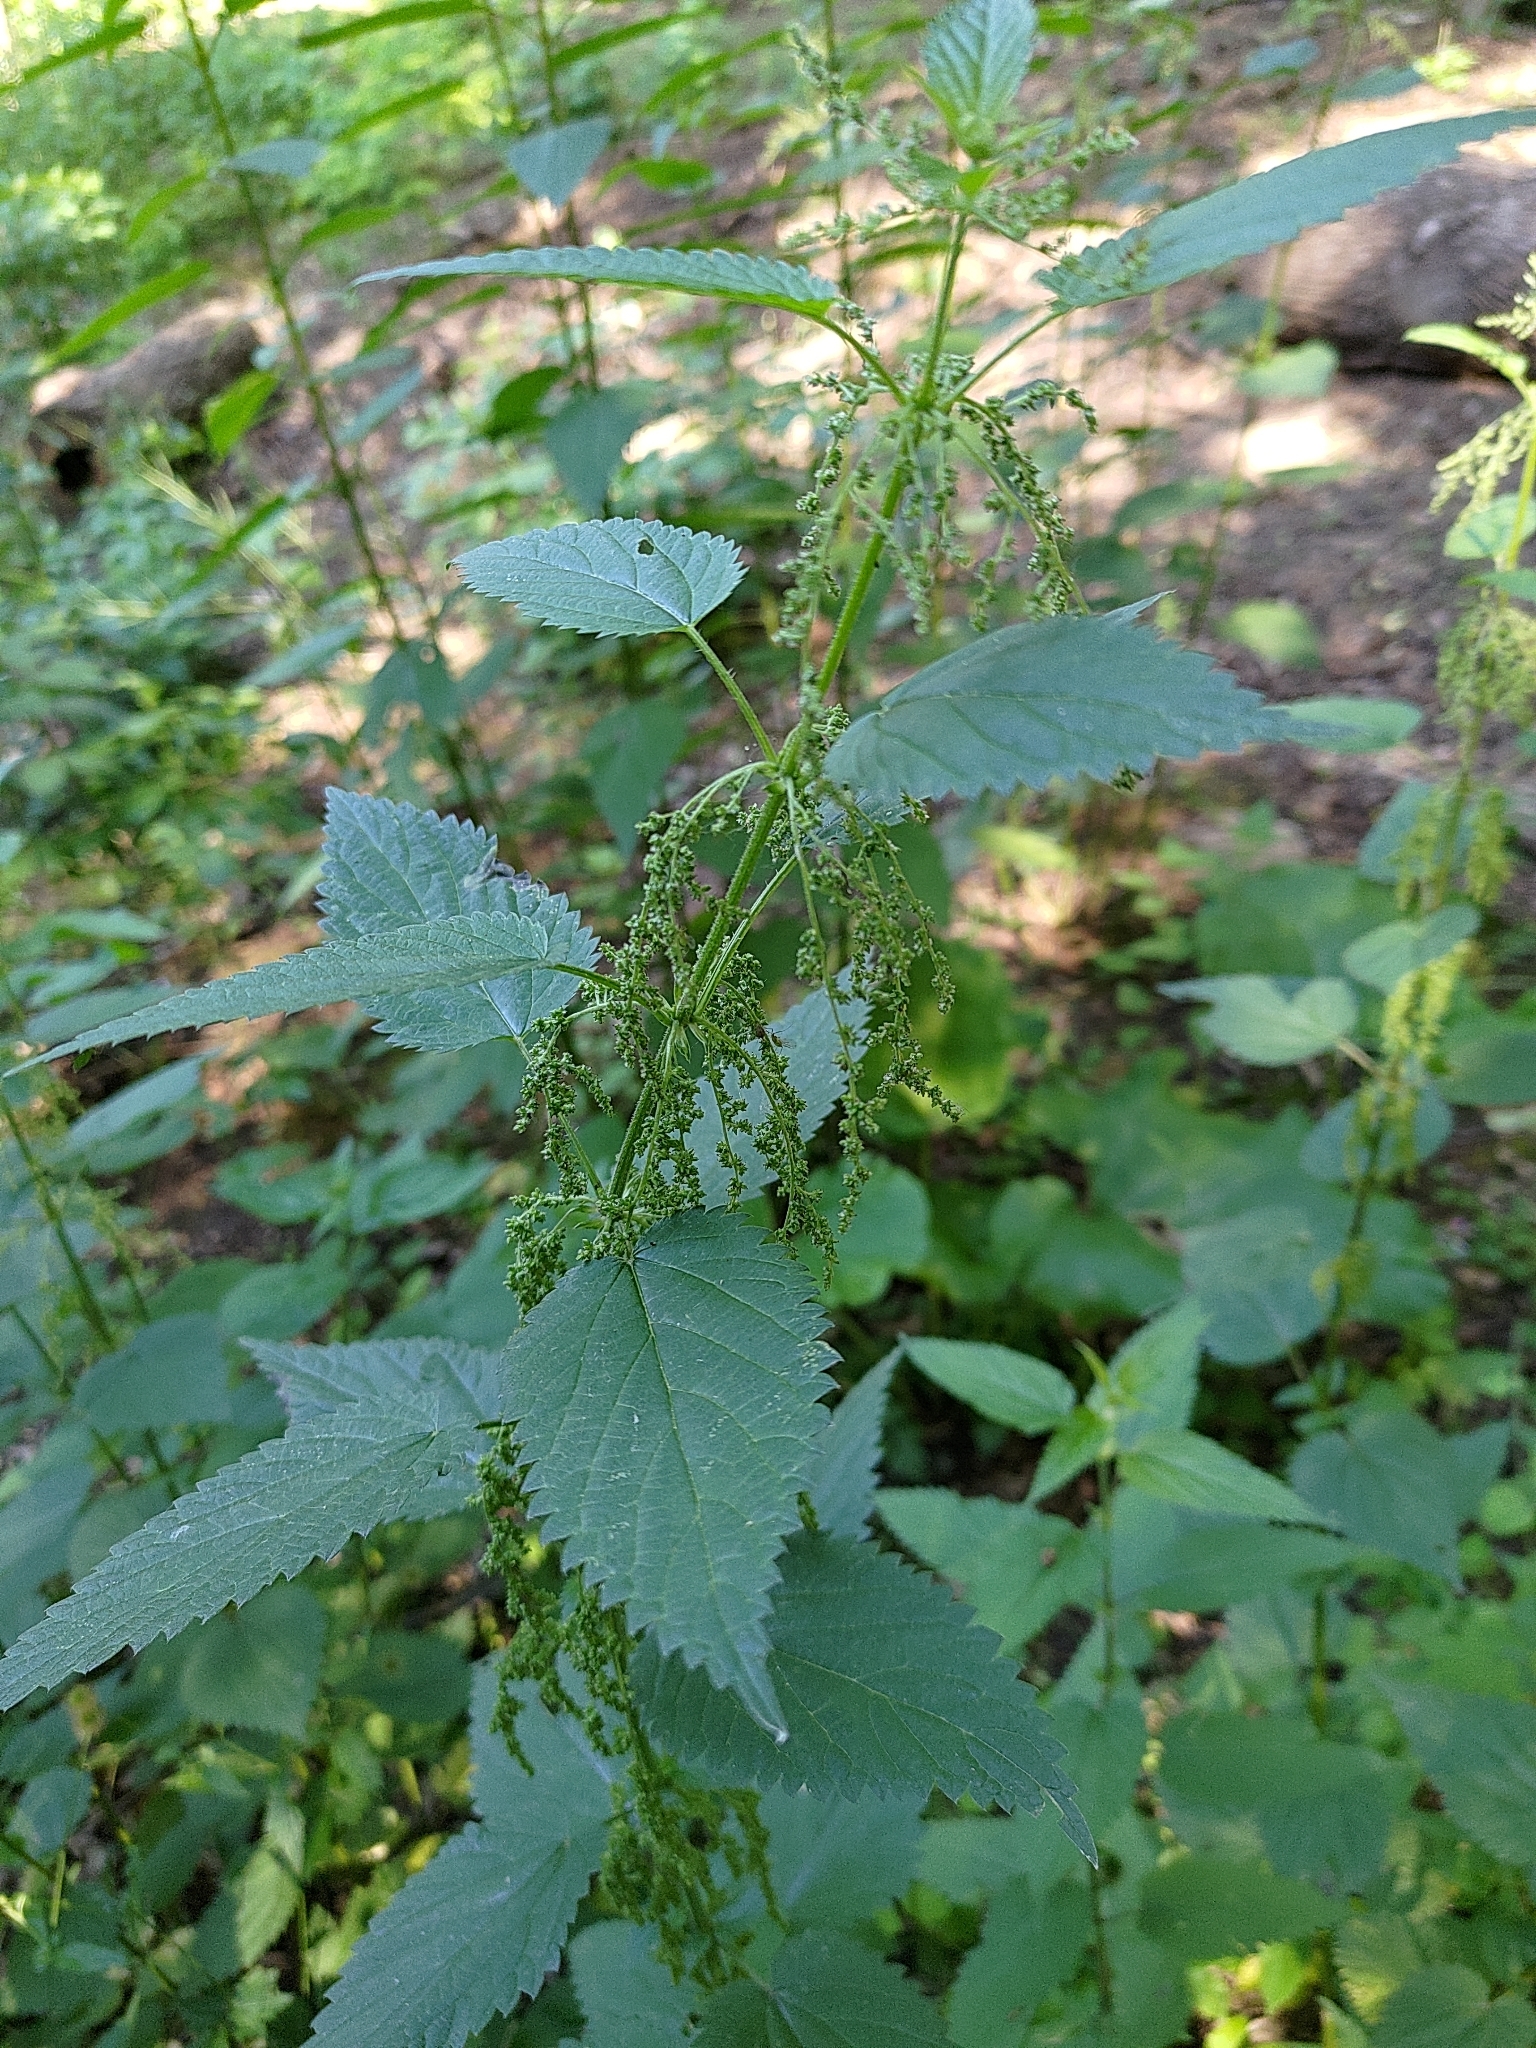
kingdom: Plantae
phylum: Tracheophyta
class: Magnoliopsida
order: Rosales
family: Urticaceae
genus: Urtica
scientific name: Urtica dioica
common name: Common nettle
